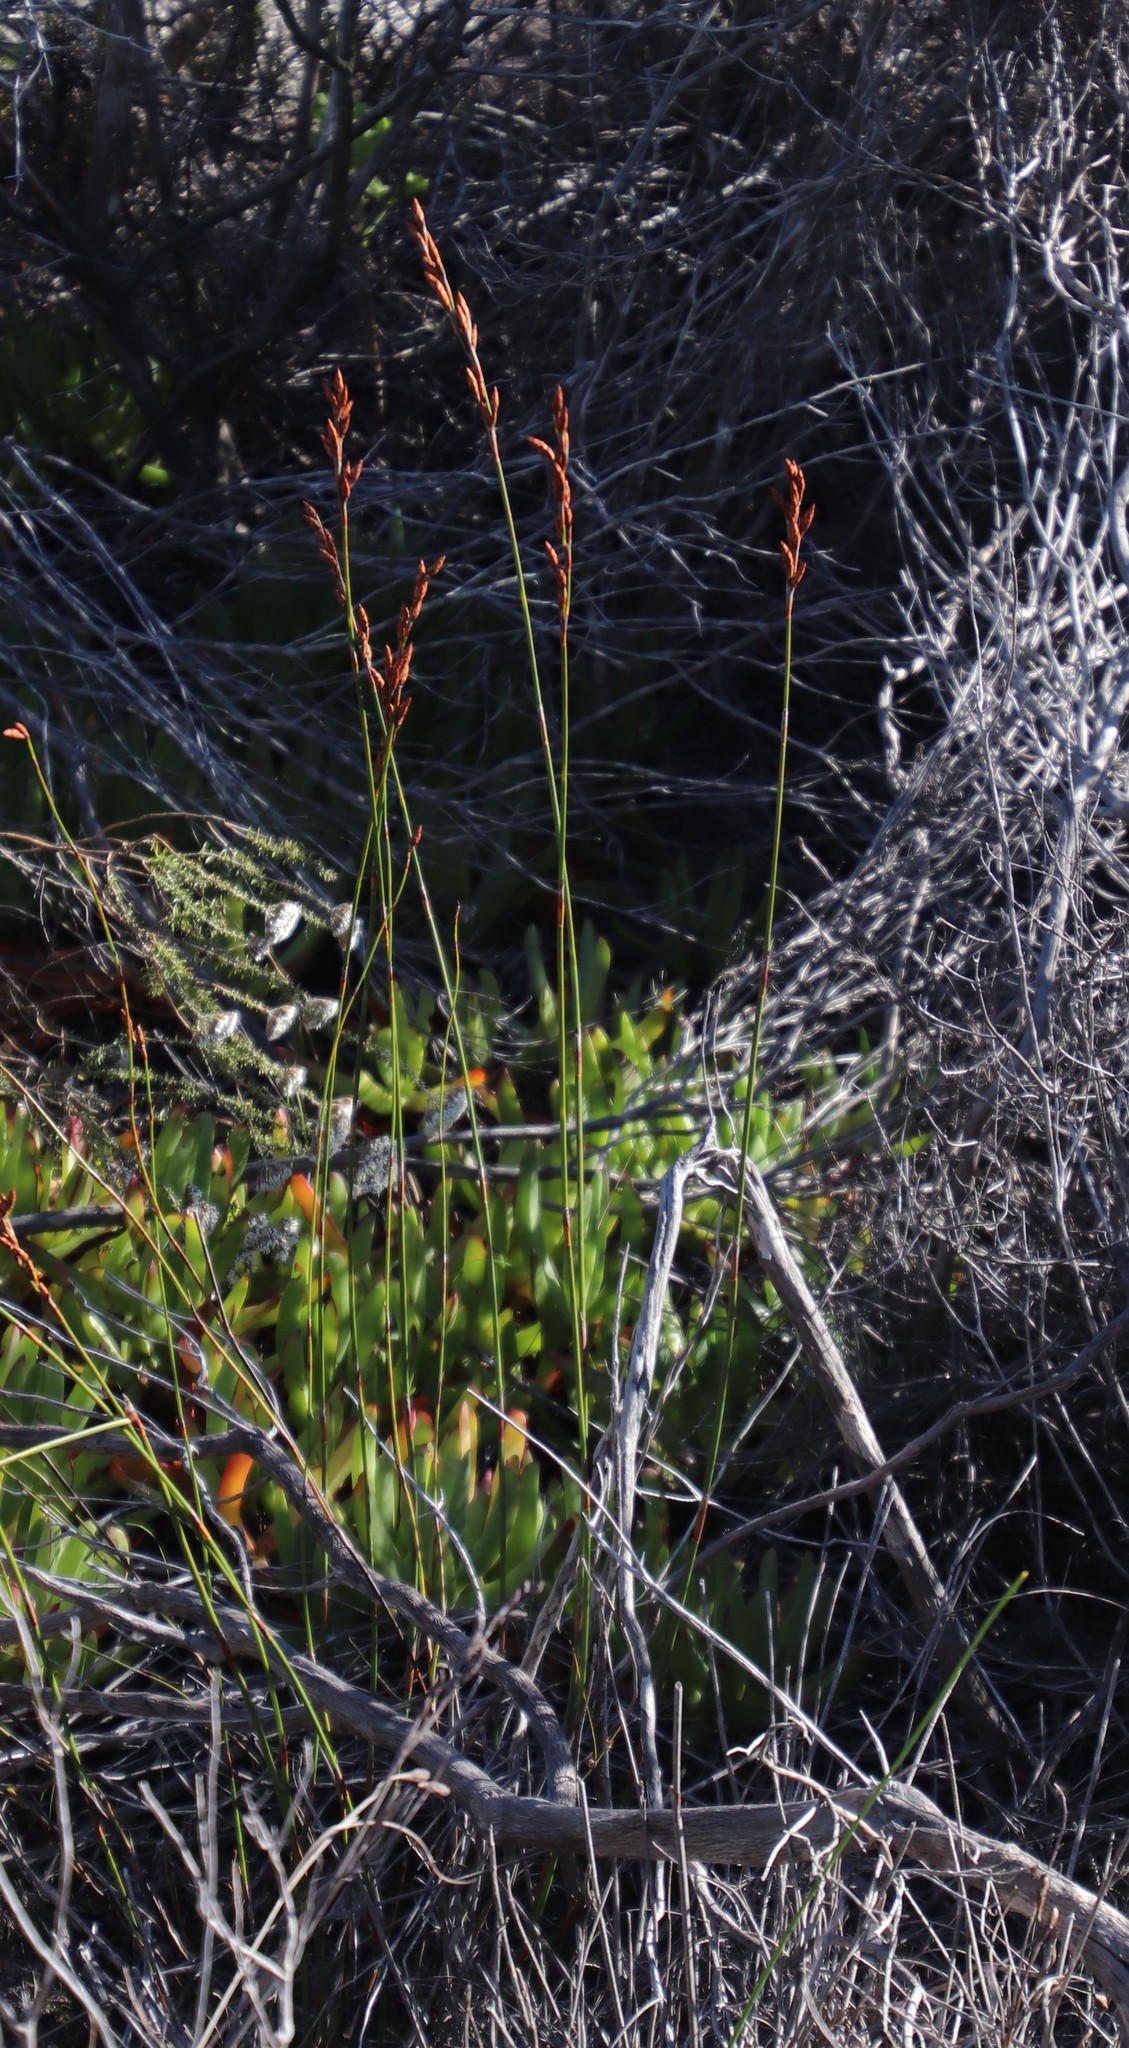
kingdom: Plantae
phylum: Tracheophyta
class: Liliopsida
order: Poales
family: Restionaceae
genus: Restio
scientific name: Restio bifurcus
